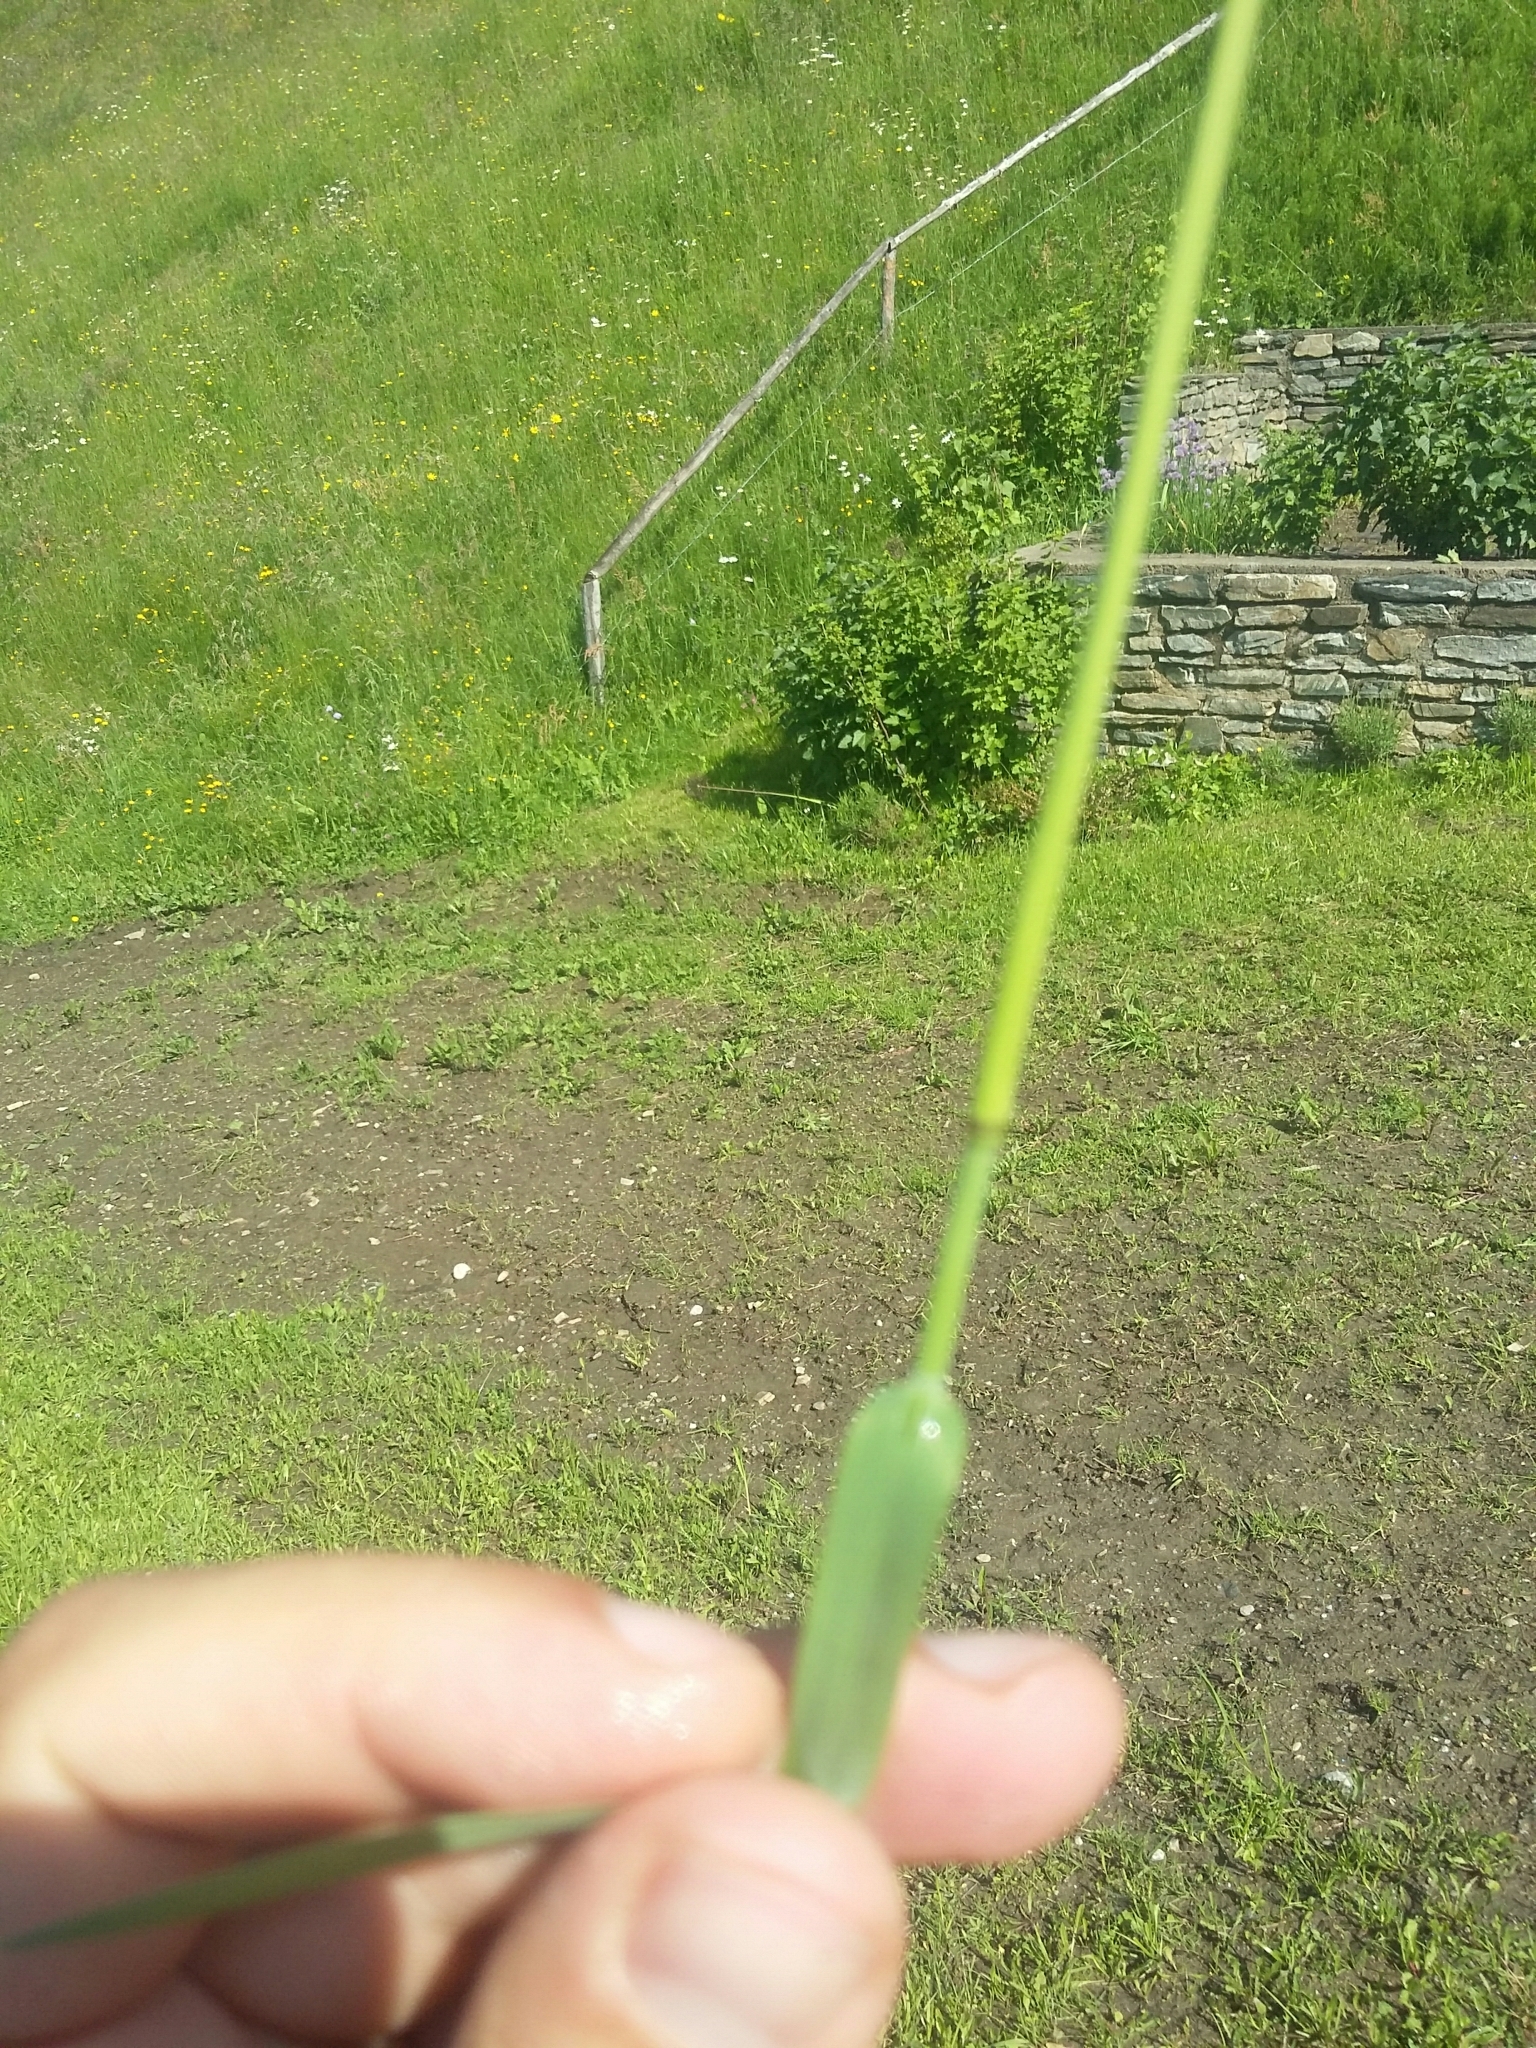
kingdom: Plantae
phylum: Tracheophyta
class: Liliopsida
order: Poales
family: Poaceae
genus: Briza
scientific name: Briza media
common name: Quaking grass
